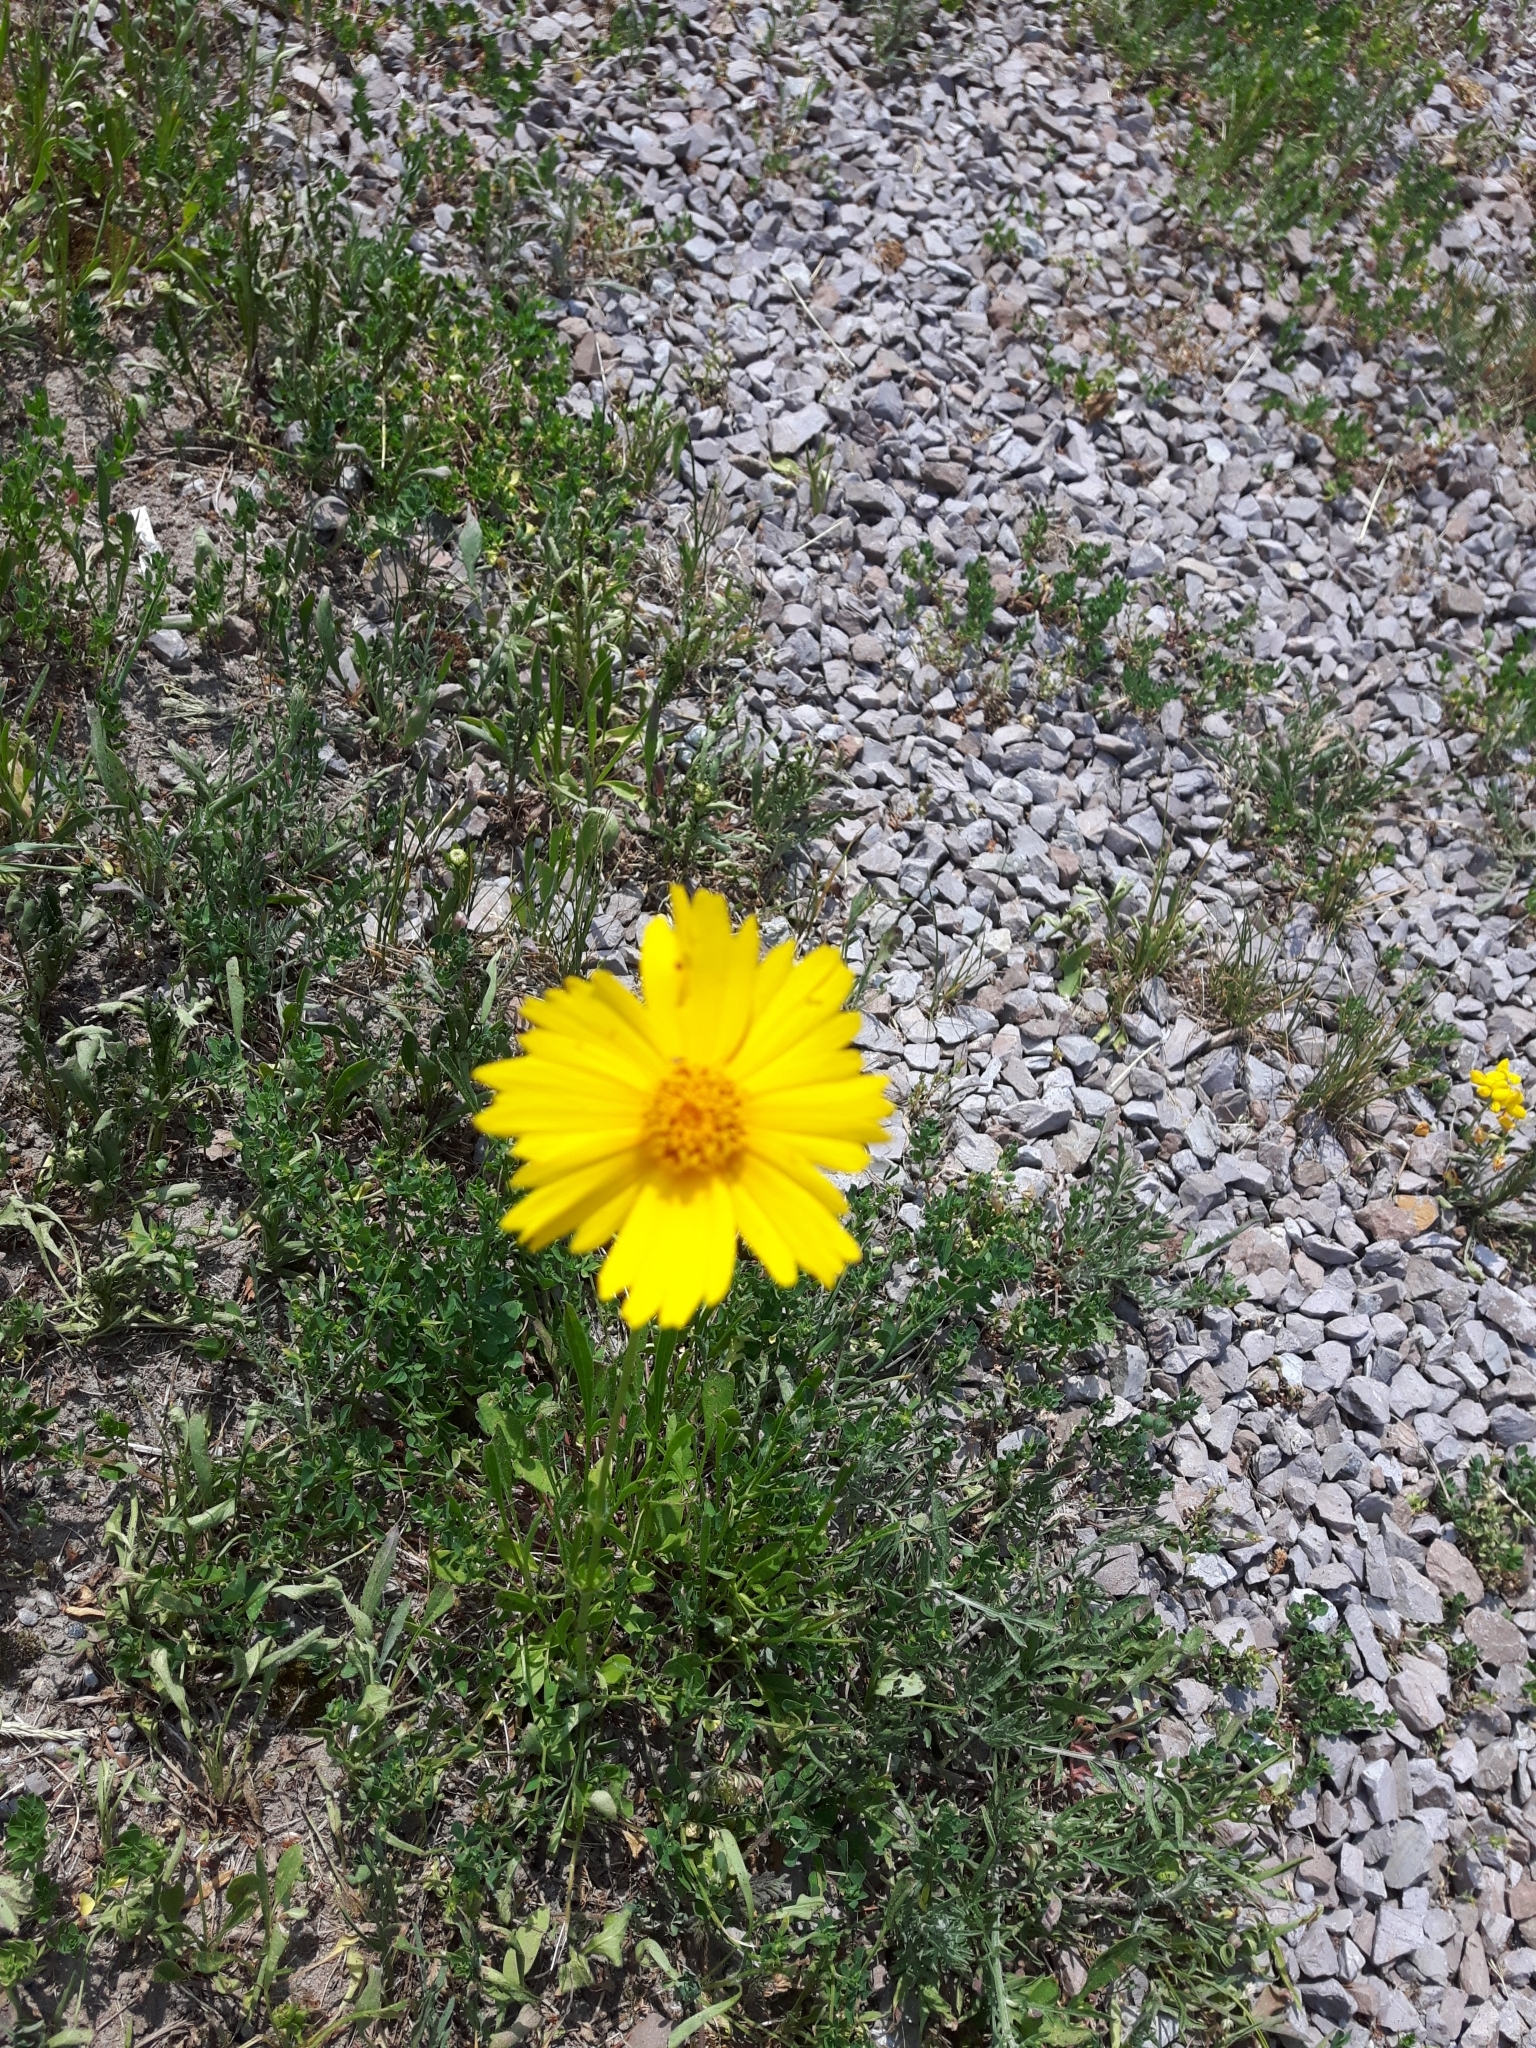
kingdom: Plantae
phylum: Tracheophyta
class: Magnoliopsida
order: Asterales
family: Asteraceae
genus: Coreopsis
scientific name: Coreopsis lanceolata
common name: Garden coreopsis
